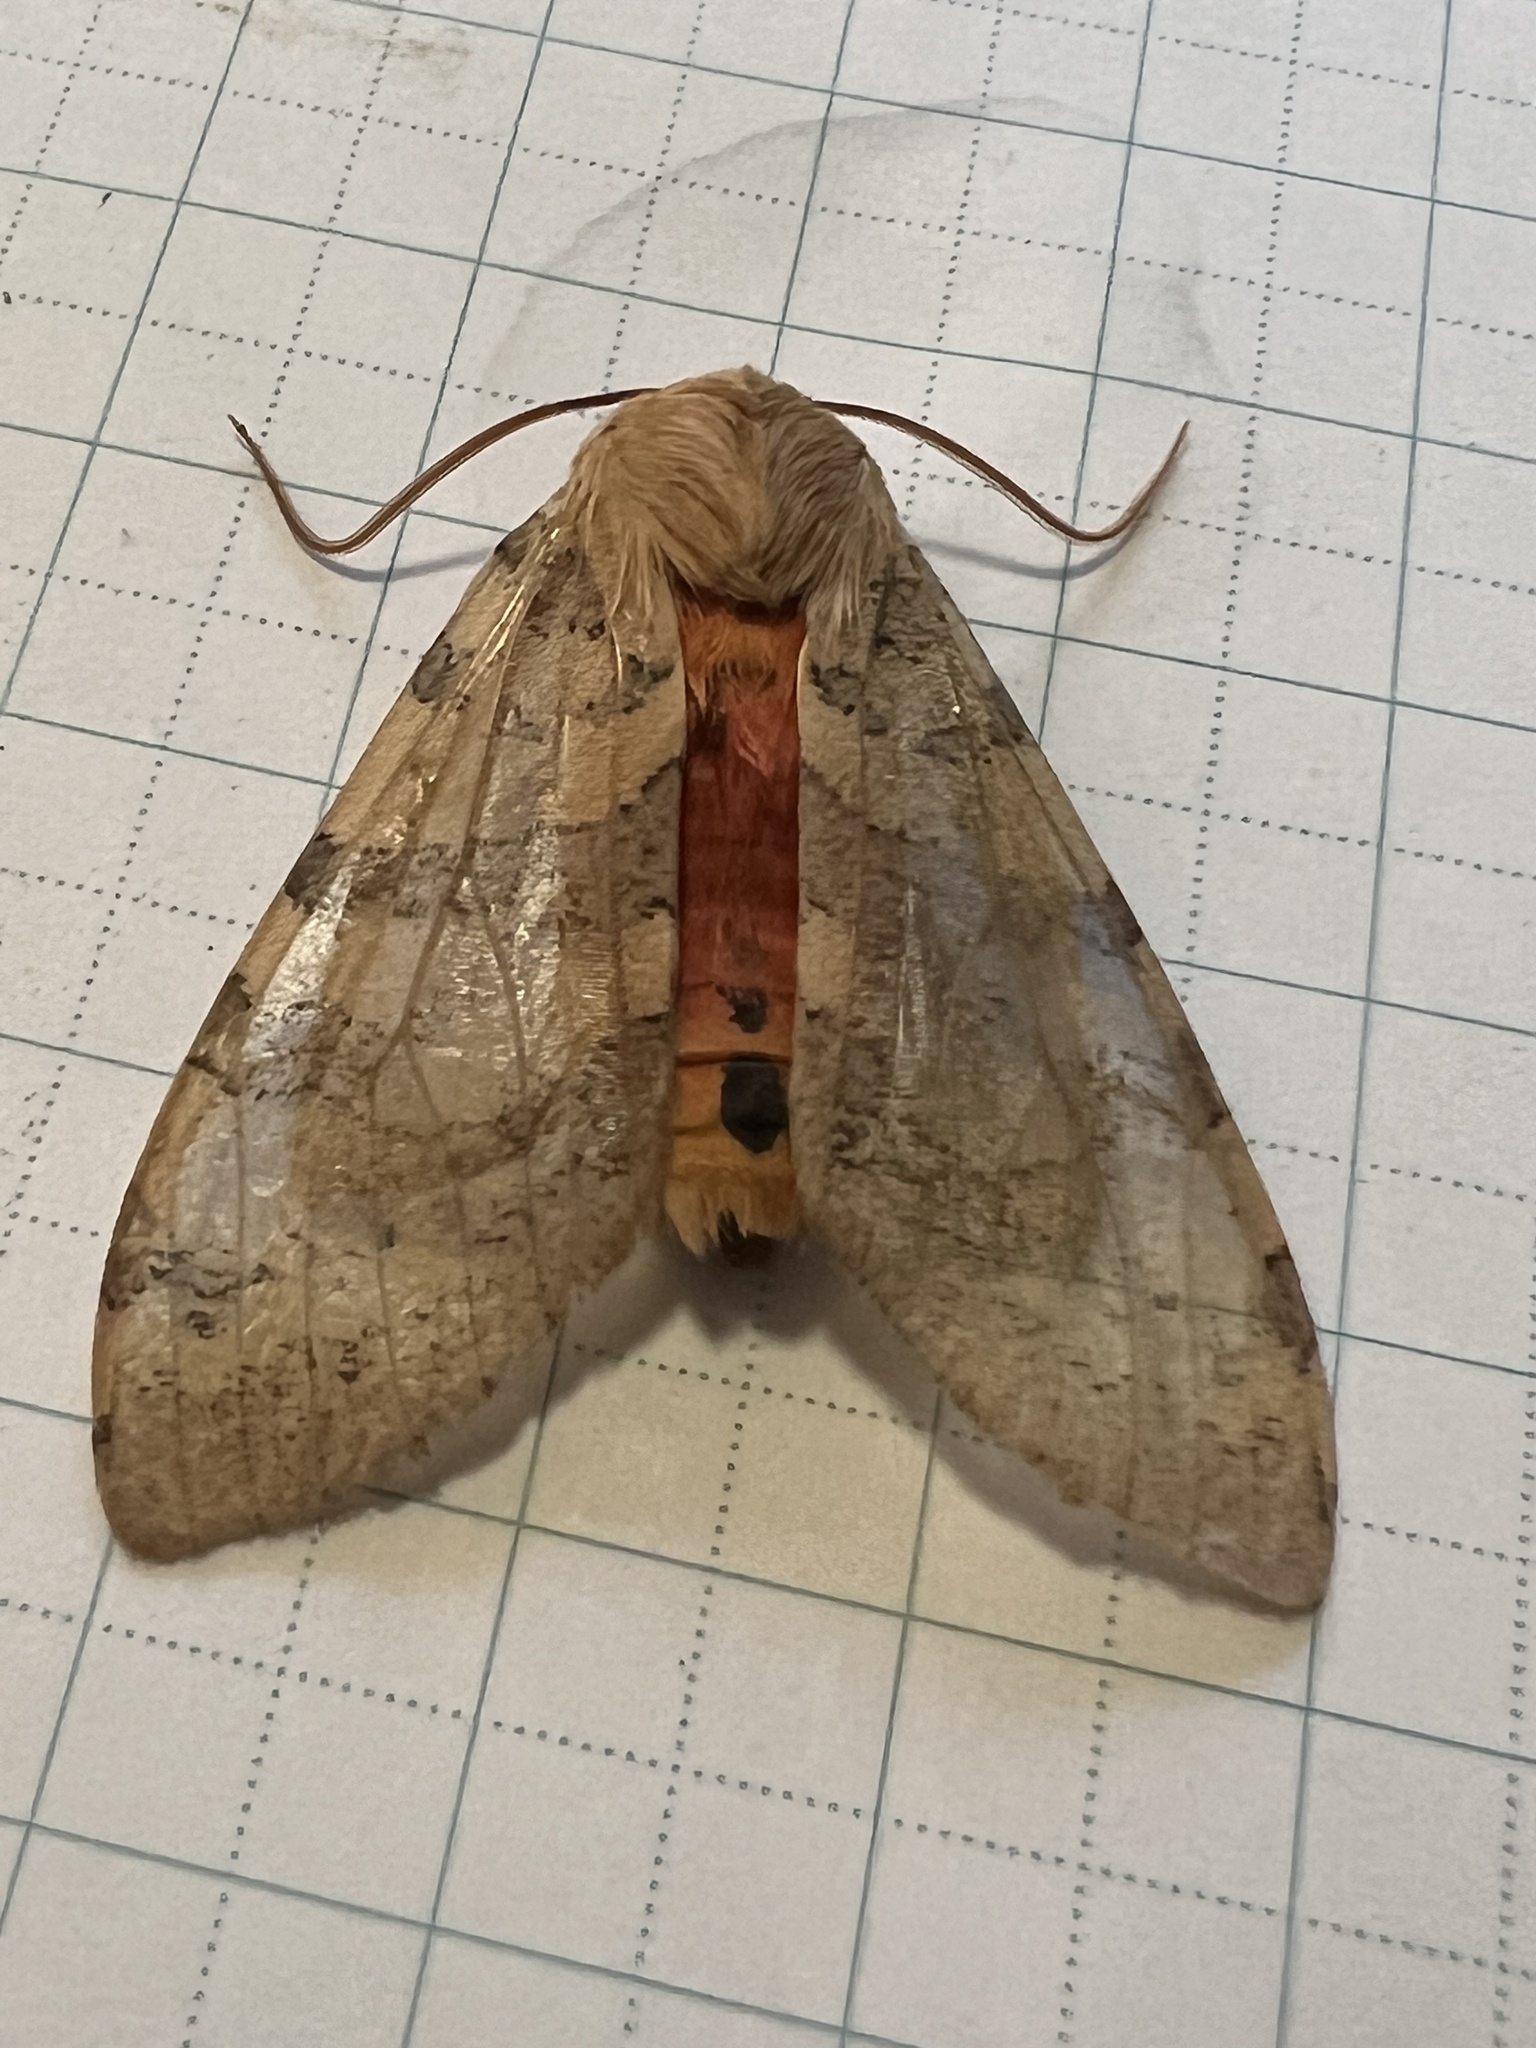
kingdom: Animalia
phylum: Arthropoda
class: Insecta
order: Lepidoptera
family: Erebidae
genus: Hemihyalea
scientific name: Hemihyalea edwardsii
